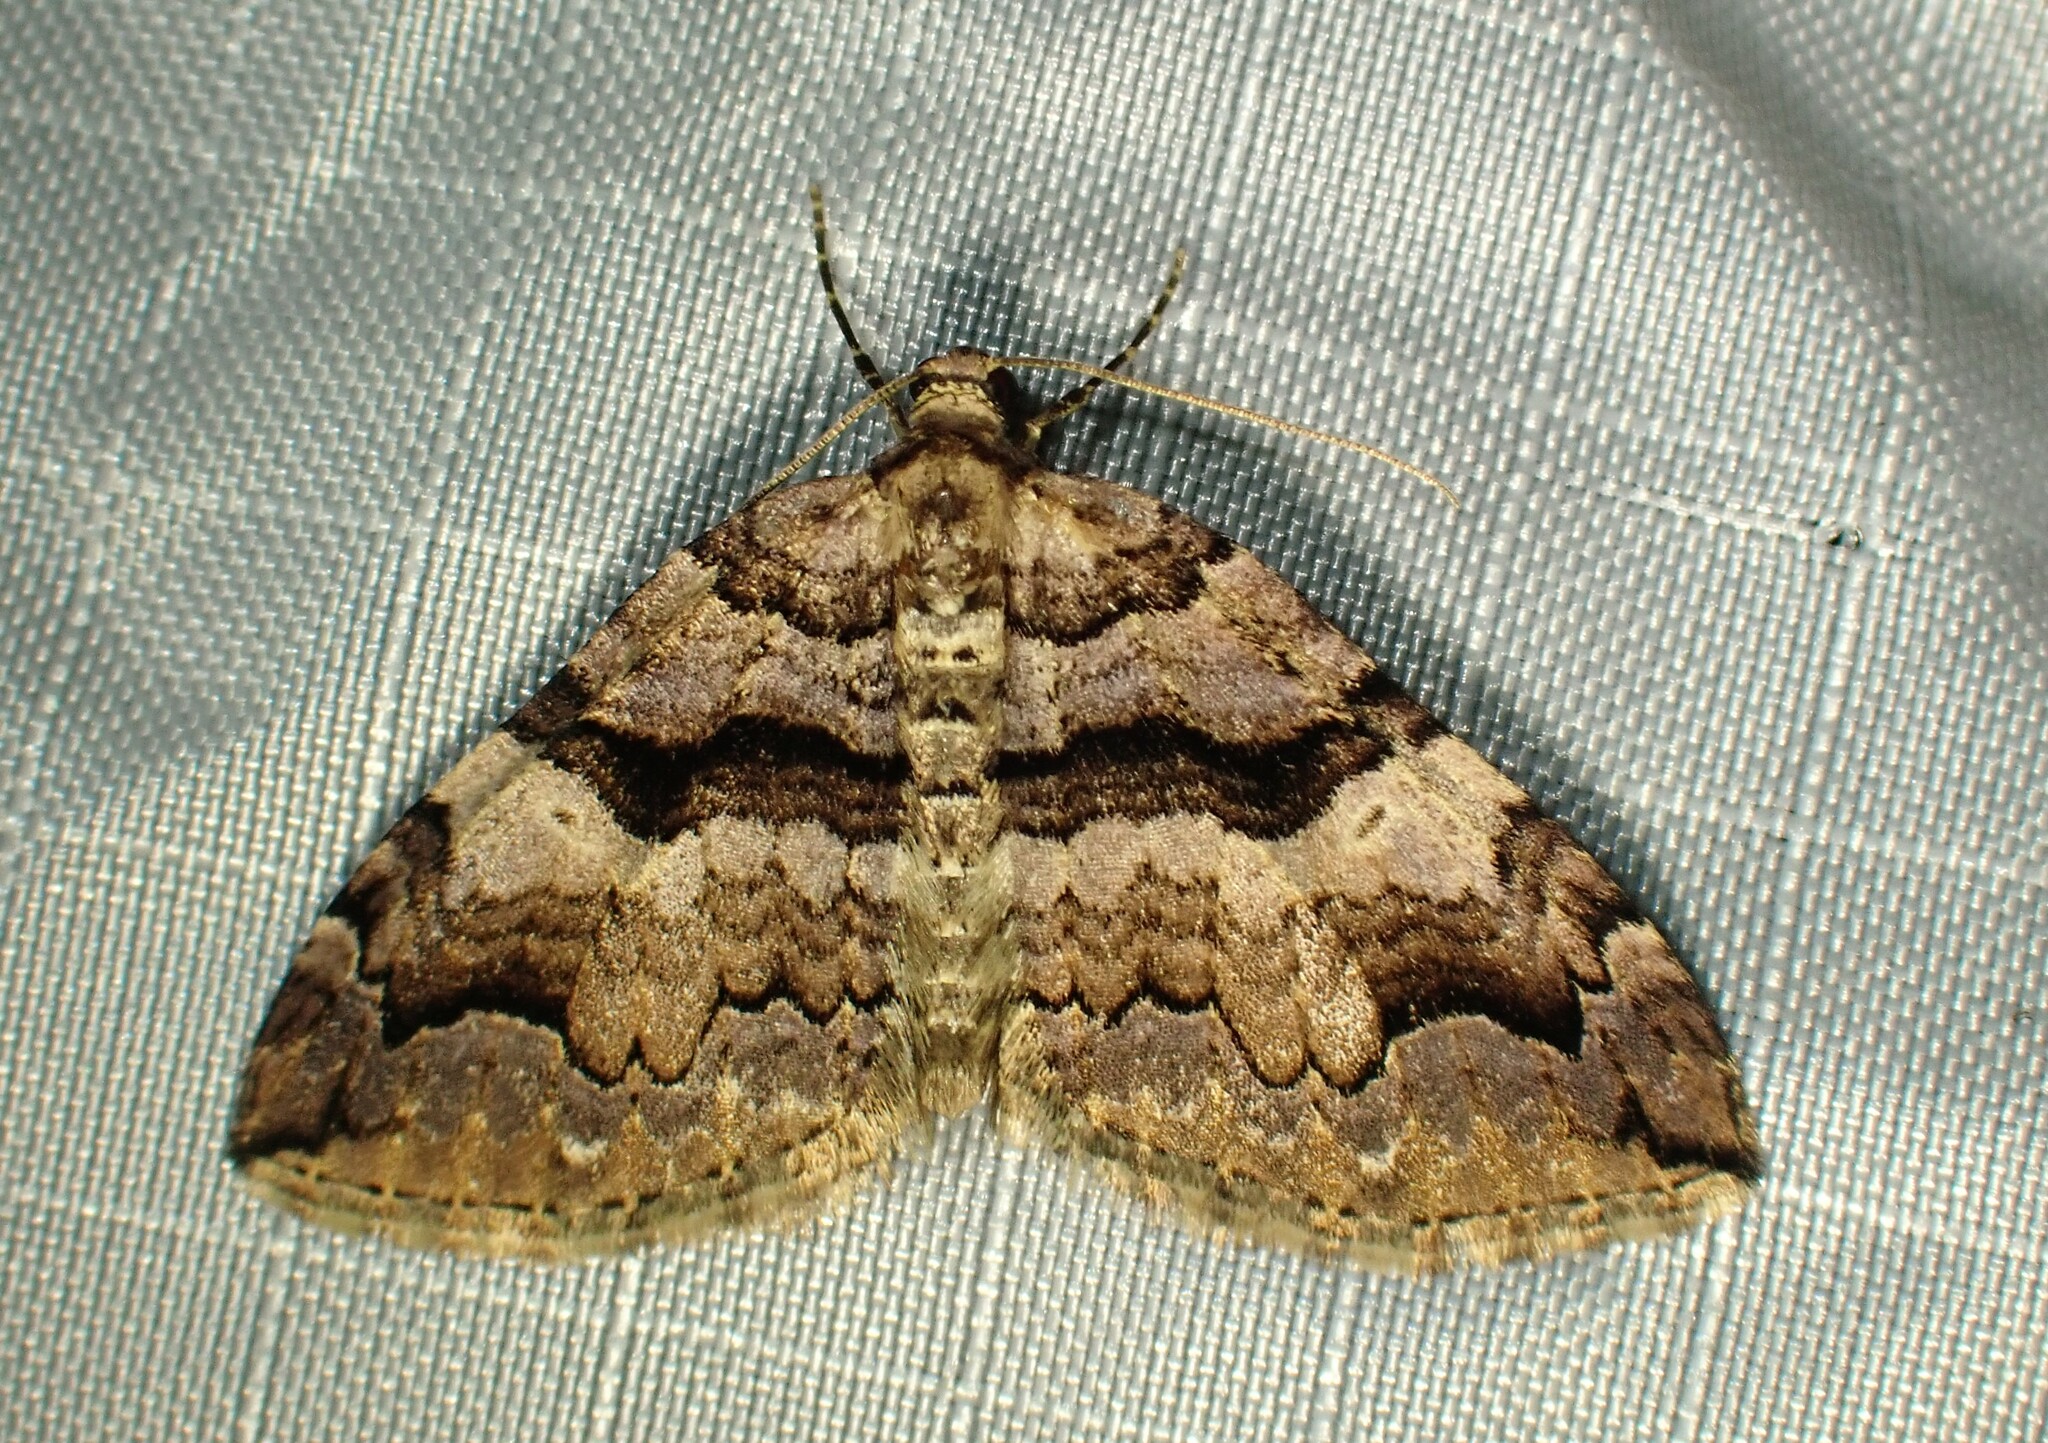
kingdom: Animalia
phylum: Arthropoda
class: Insecta
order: Lepidoptera
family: Geometridae
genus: Anticlea
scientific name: Anticlea vasiliata
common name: Variable carpet
